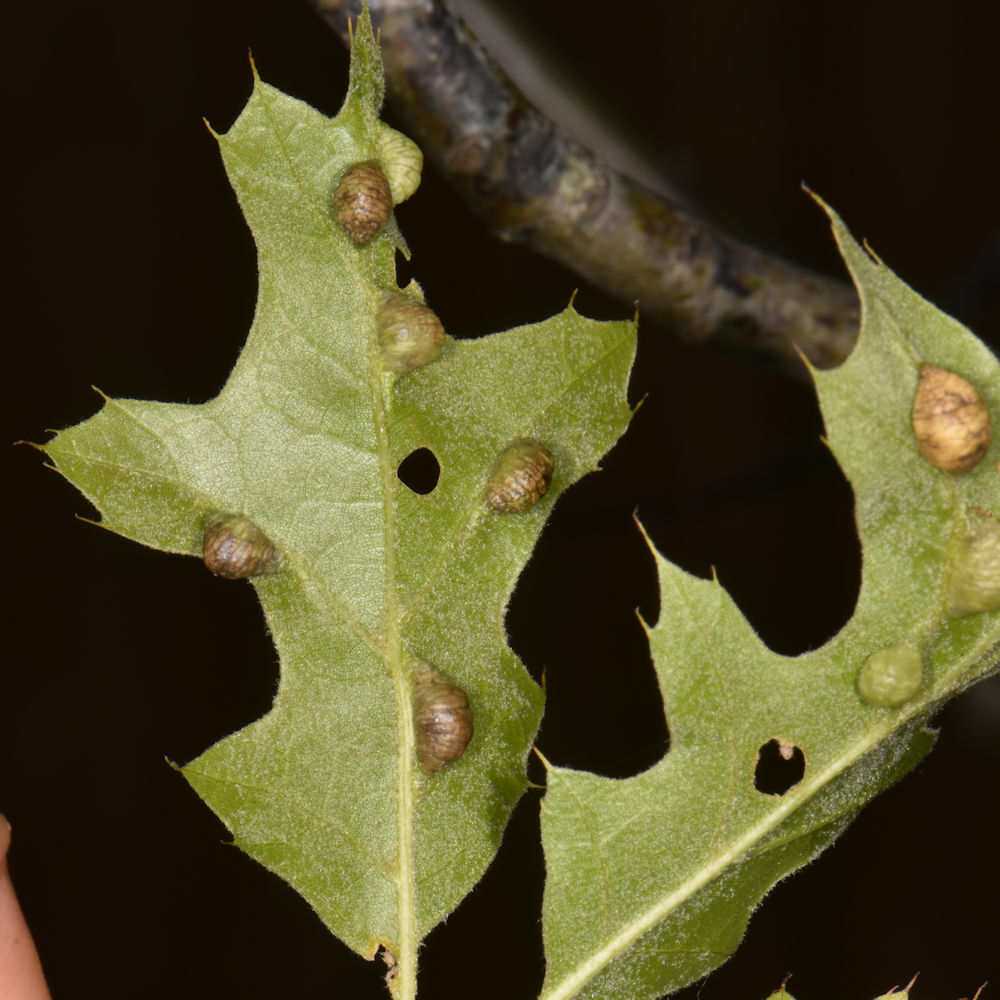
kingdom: Animalia
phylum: Arthropoda
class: Insecta
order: Diptera
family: Cecidomyiidae
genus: Macrodiplosis
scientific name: Macrodiplosis majalis
